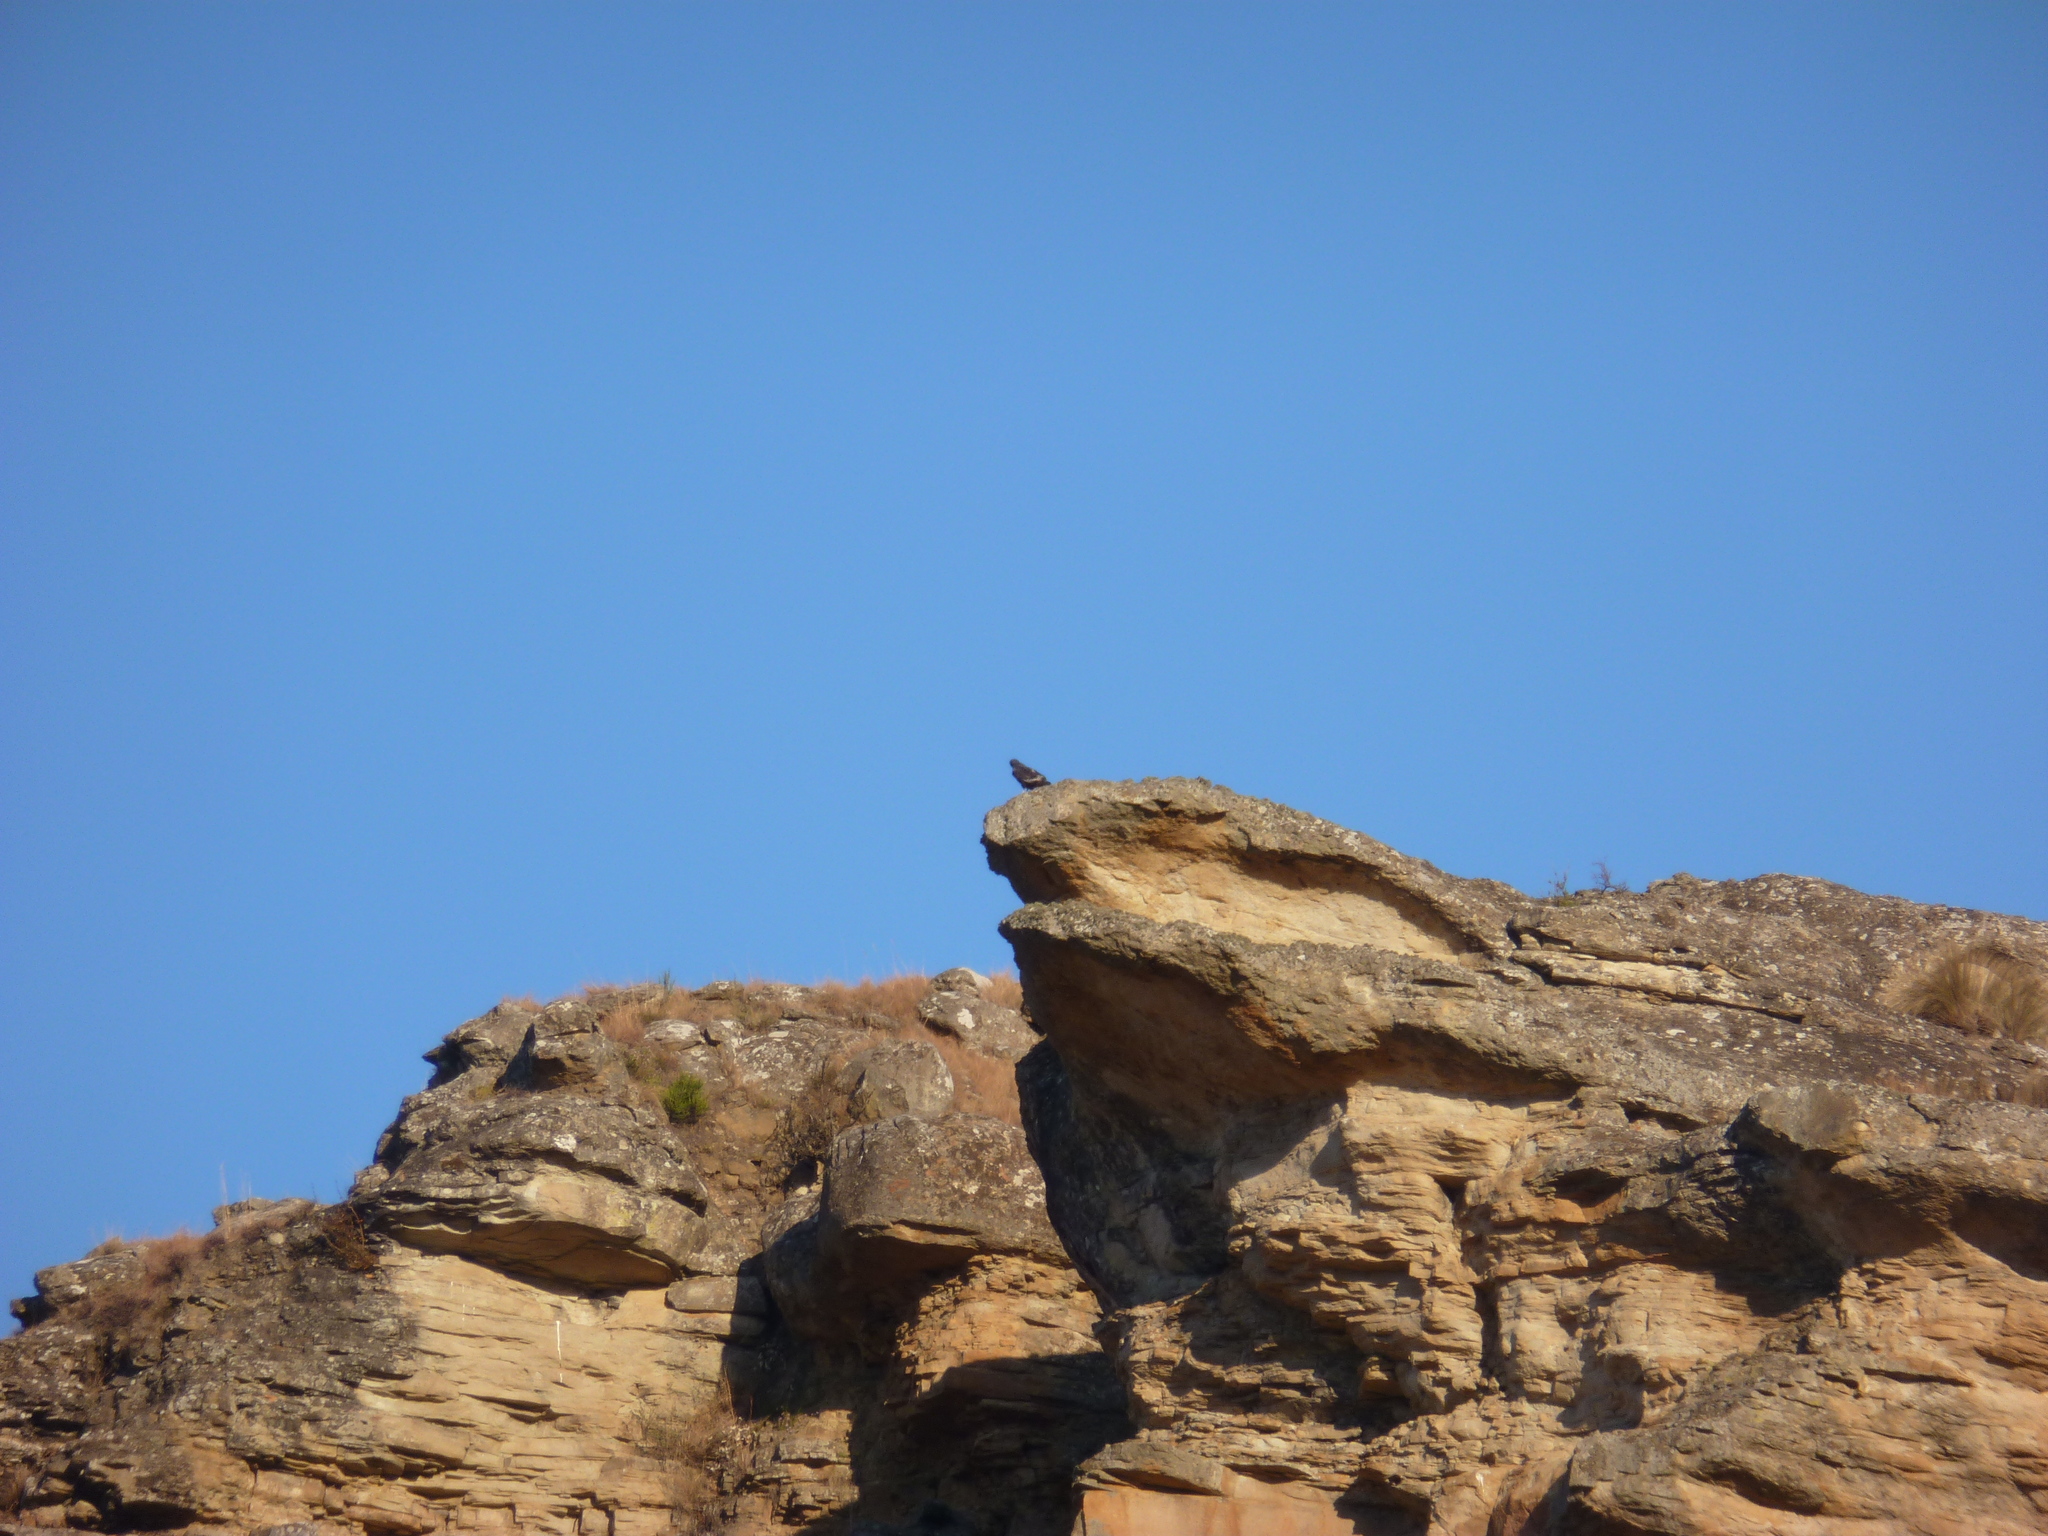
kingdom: Animalia
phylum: Chordata
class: Aves
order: Accipitriformes
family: Accipitridae
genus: Buteo
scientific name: Buteo rufofuscus
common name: Jackal buzzard
